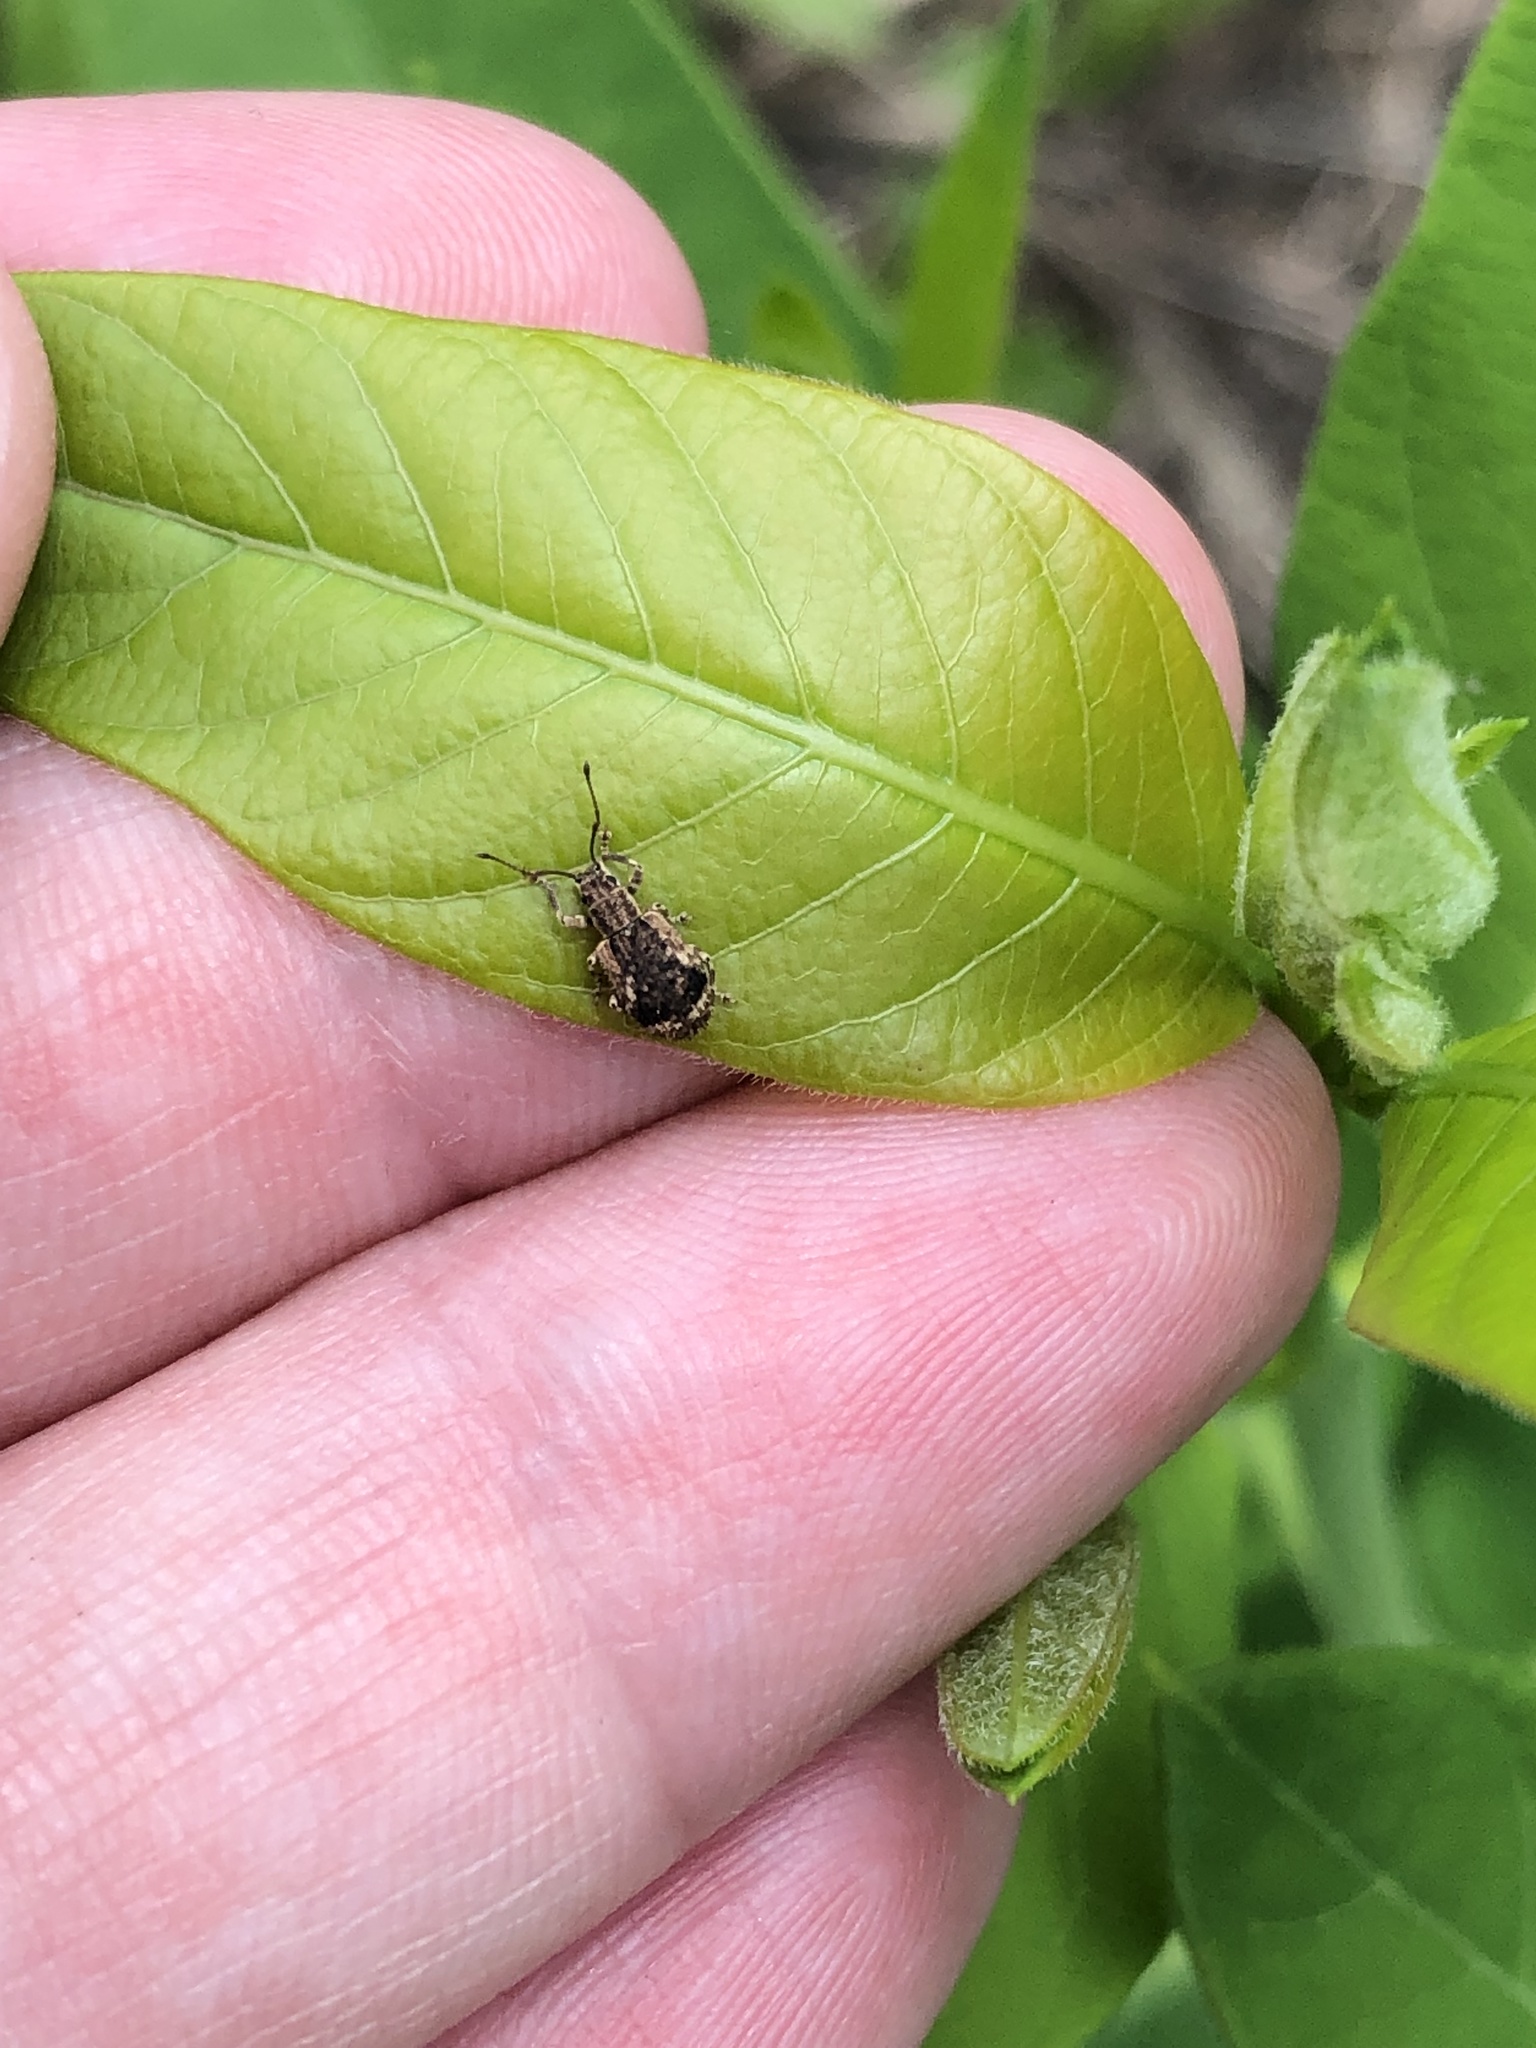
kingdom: Animalia
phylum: Arthropoda
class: Insecta
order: Coleoptera
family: Curculionidae
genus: Pseudoedophrys
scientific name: Pseudoedophrys hilleri
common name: Weevil
